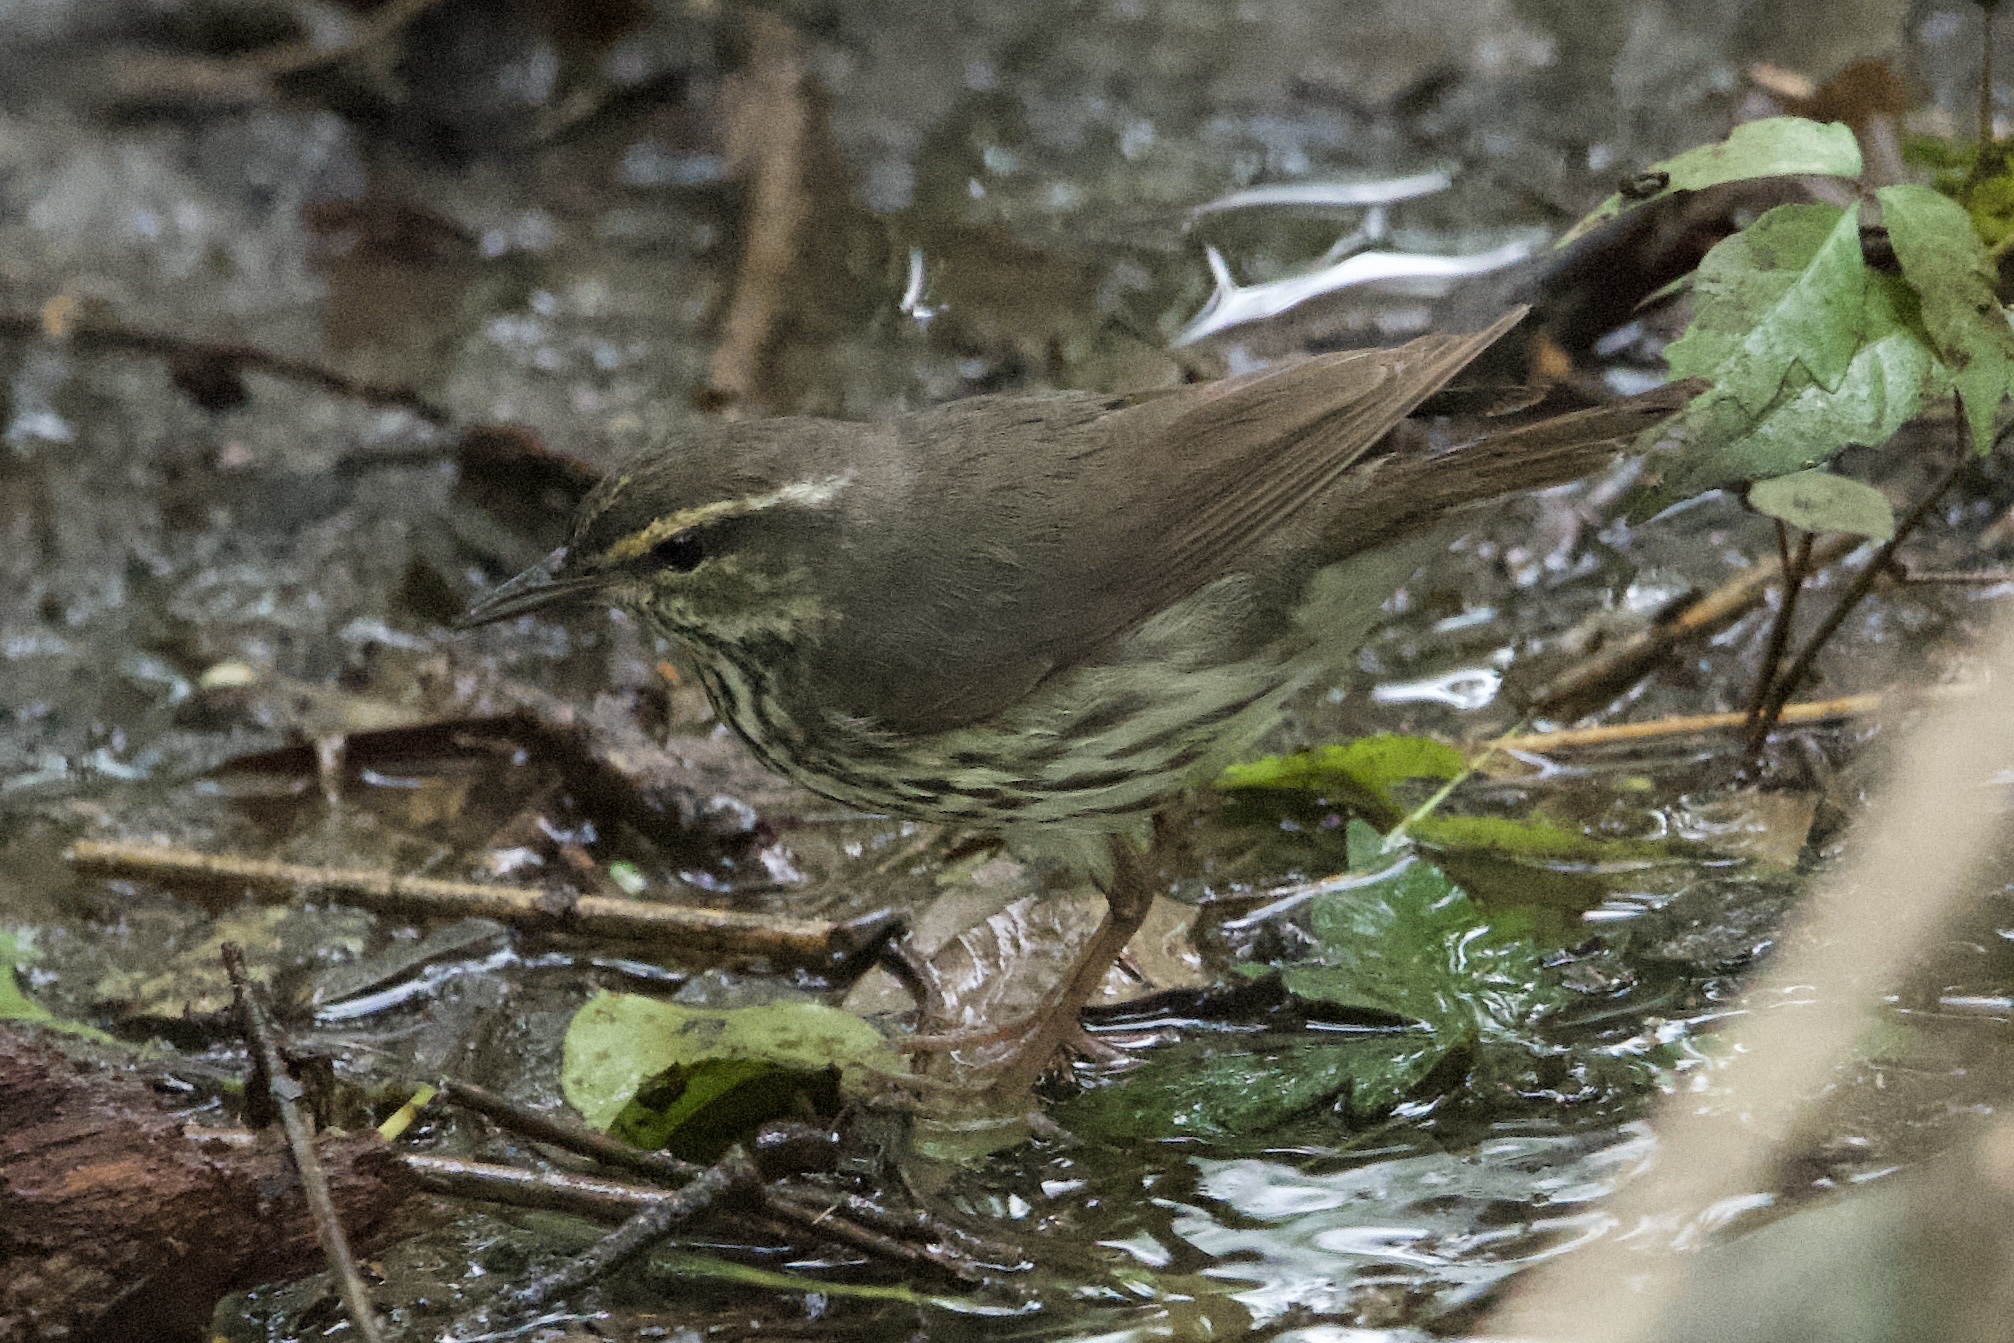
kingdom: Animalia
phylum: Chordata
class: Aves
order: Passeriformes
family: Parulidae
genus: Parkesia
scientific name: Parkesia noveboracensis
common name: Northern waterthrush
